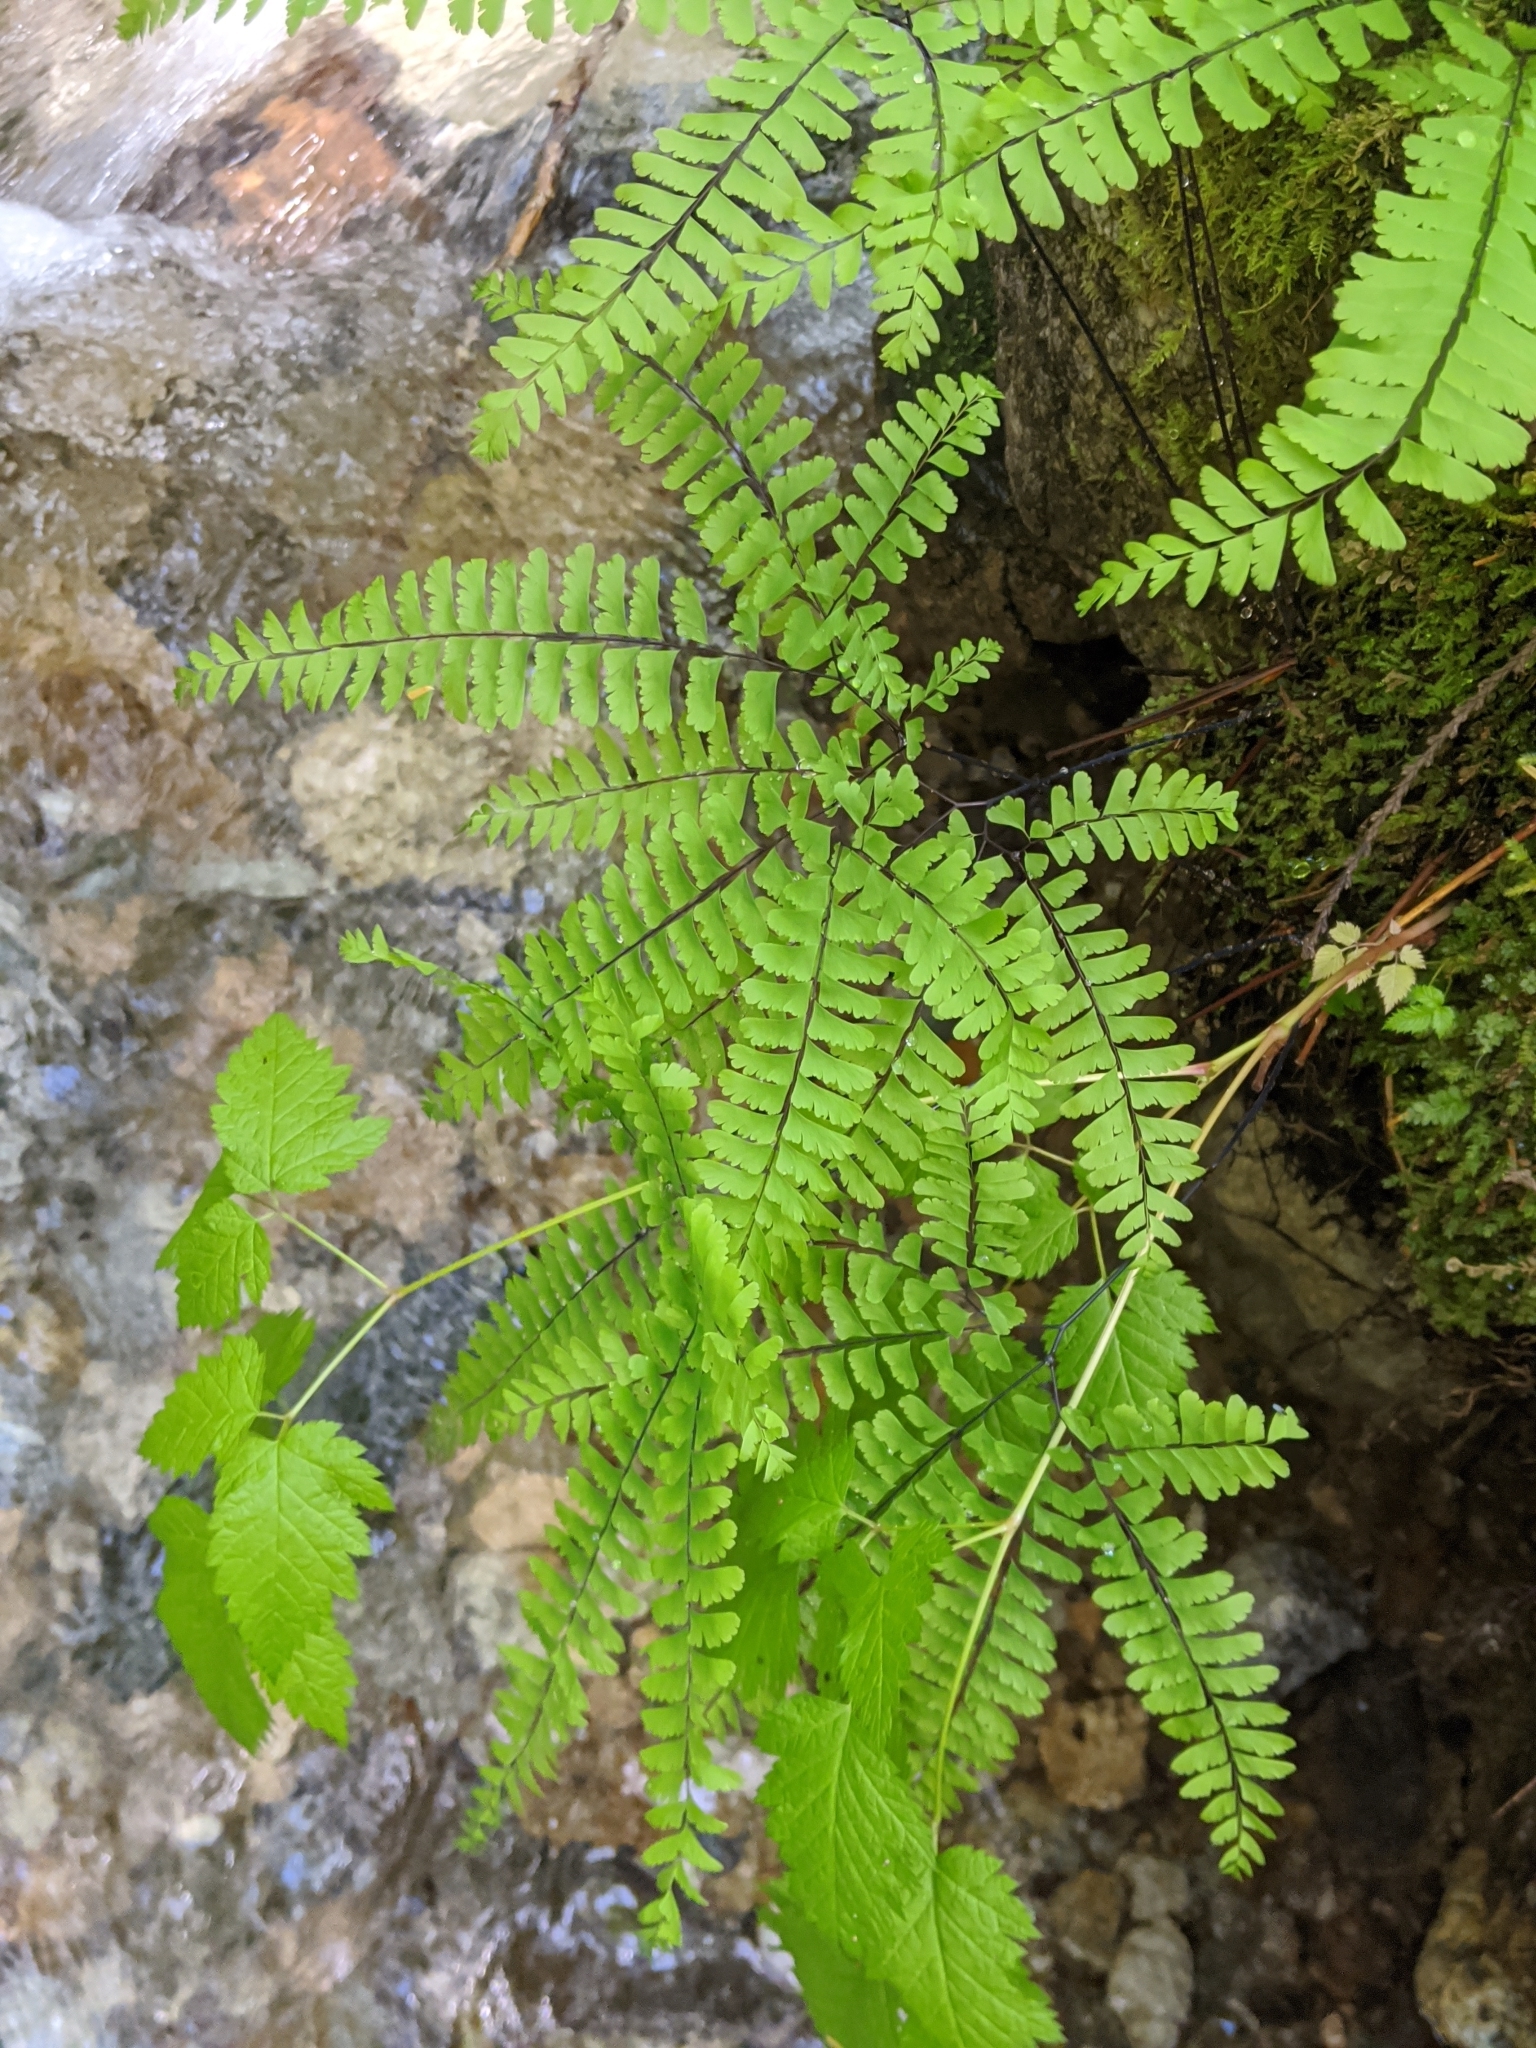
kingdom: Plantae
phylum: Tracheophyta
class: Polypodiopsida
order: Polypodiales
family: Pteridaceae
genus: Adiantum
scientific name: Adiantum aleuticum
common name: Aleutian maidenhair fern
